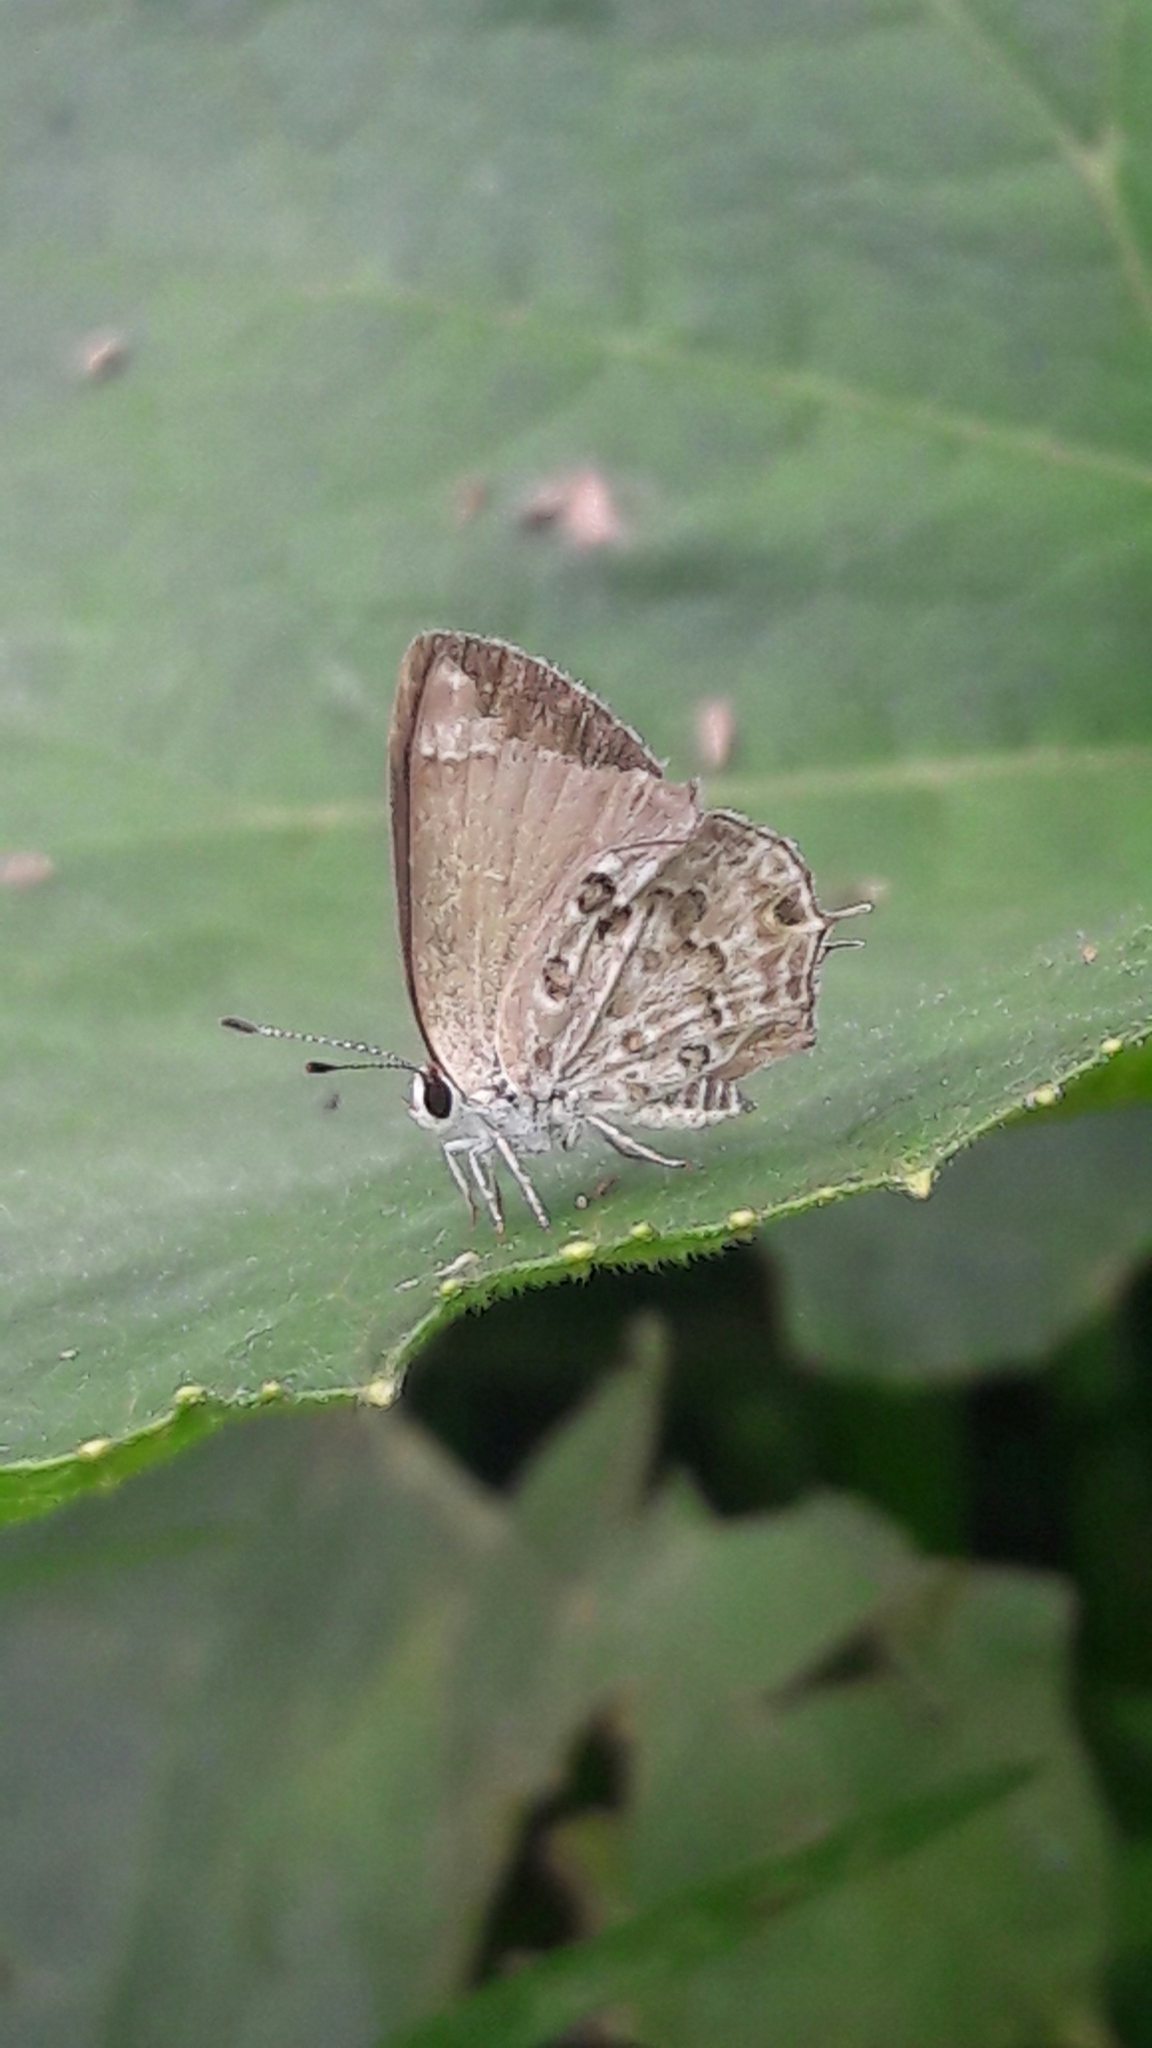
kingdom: Animalia
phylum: Arthropoda
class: Insecta
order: Lepidoptera
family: Lycaenidae
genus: Strymon
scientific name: Strymon astiocha
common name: Gray-spotted scrub-hairstreak
